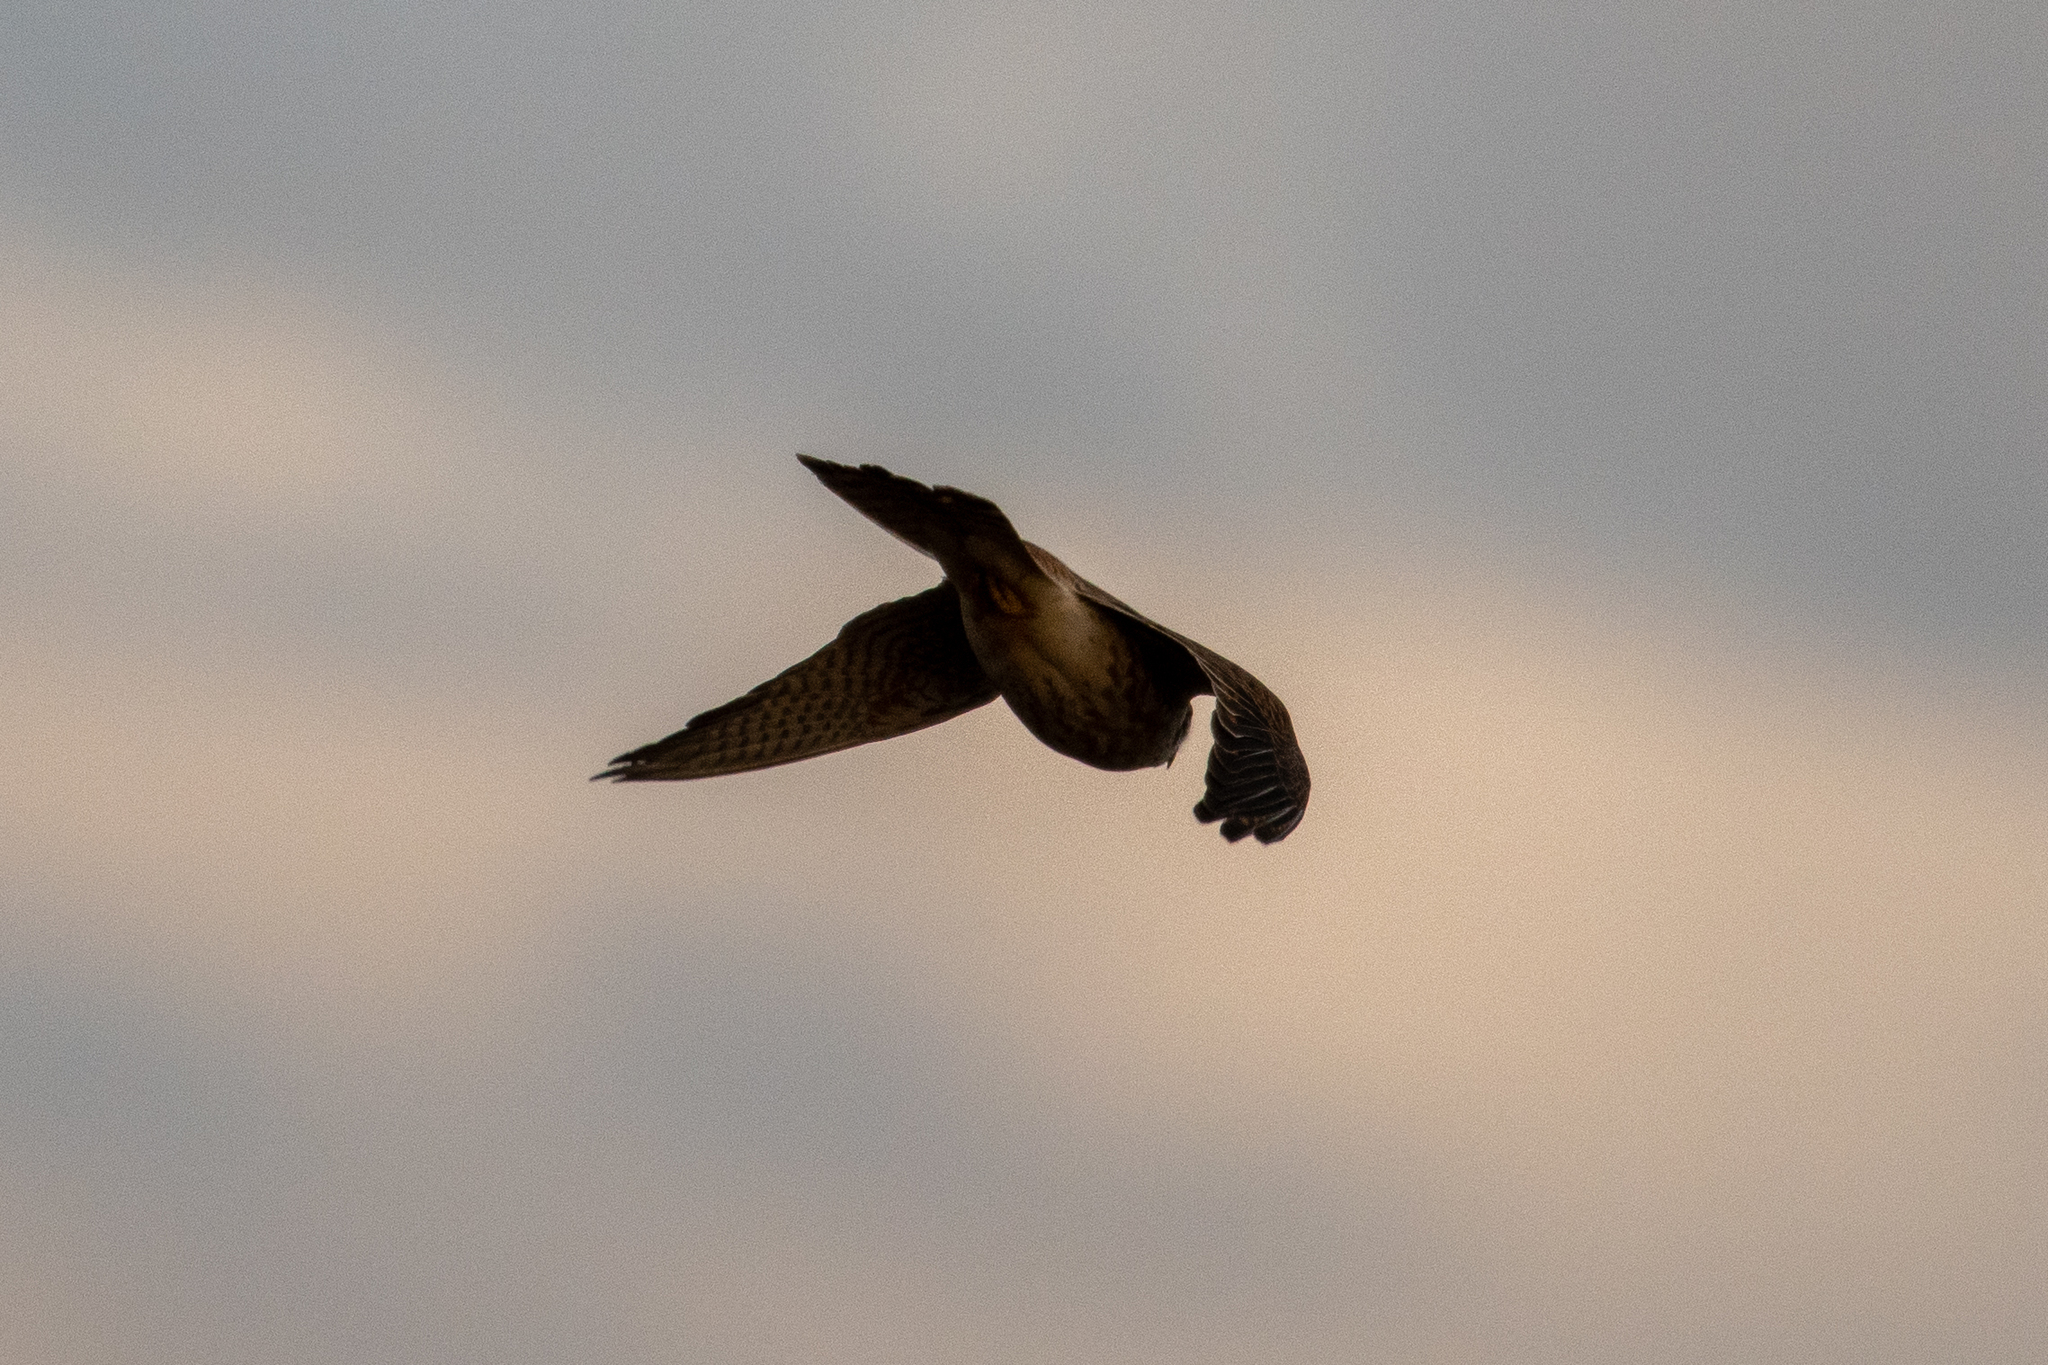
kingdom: Animalia
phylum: Chordata
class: Aves
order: Falconiformes
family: Falconidae
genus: Falco
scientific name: Falco sparverius
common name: American kestrel
